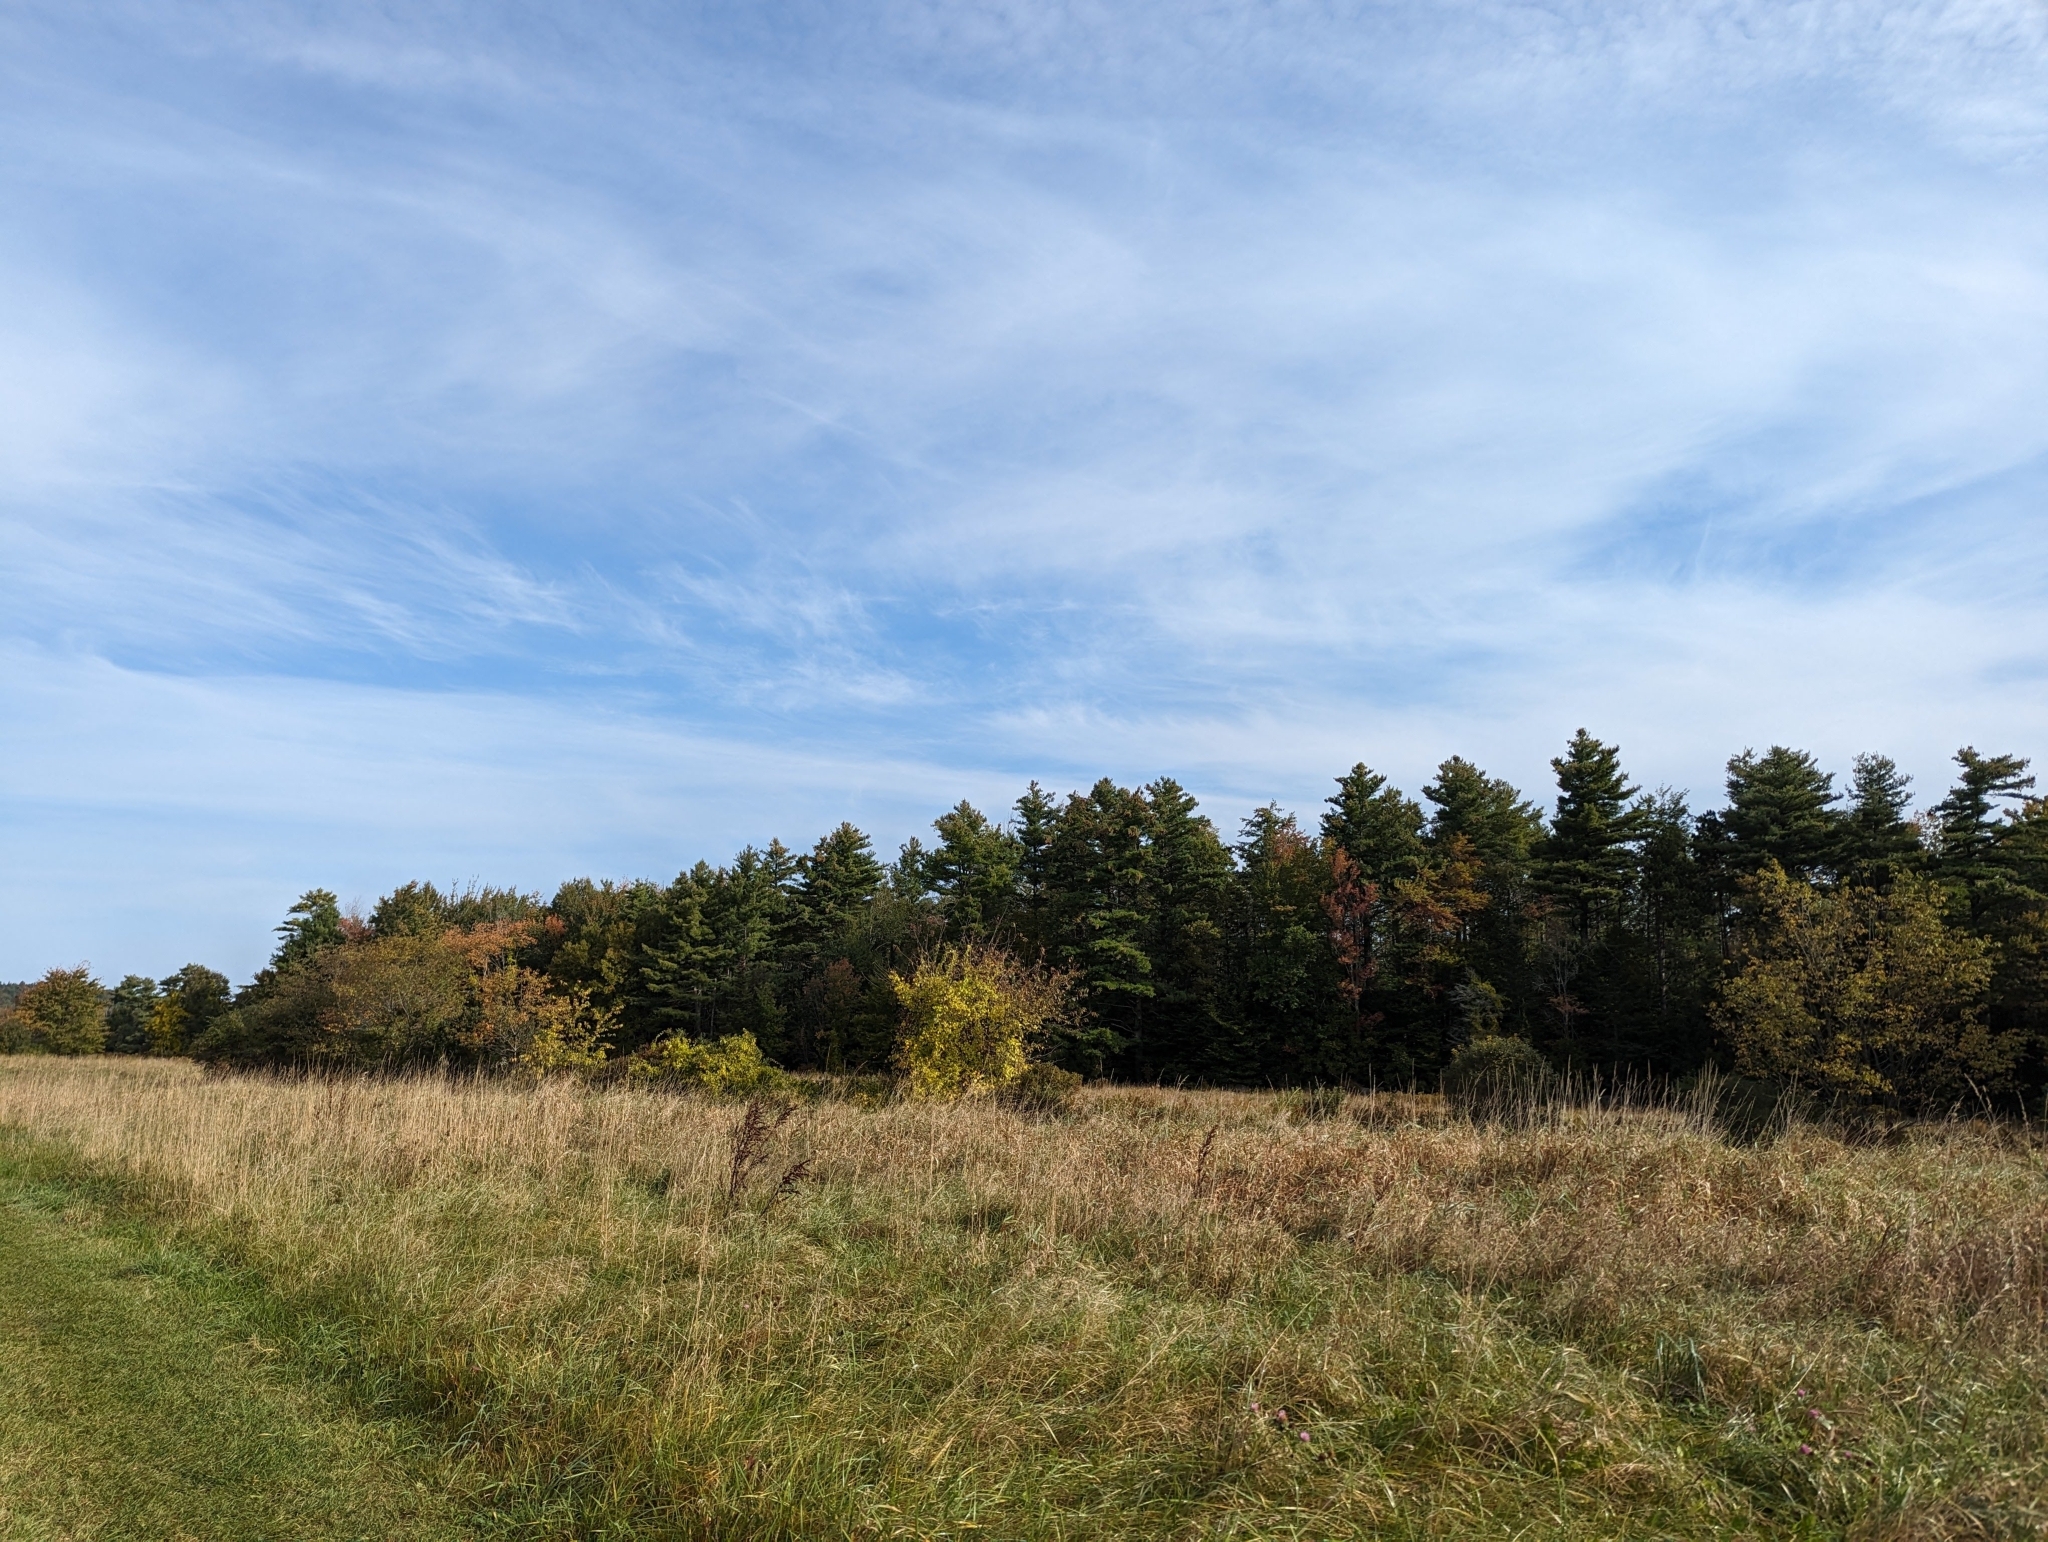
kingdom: Plantae
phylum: Tracheophyta
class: Pinopsida
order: Pinales
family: Pinaceae
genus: Pinus
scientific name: Pinus strobus
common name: Weymouth pine
